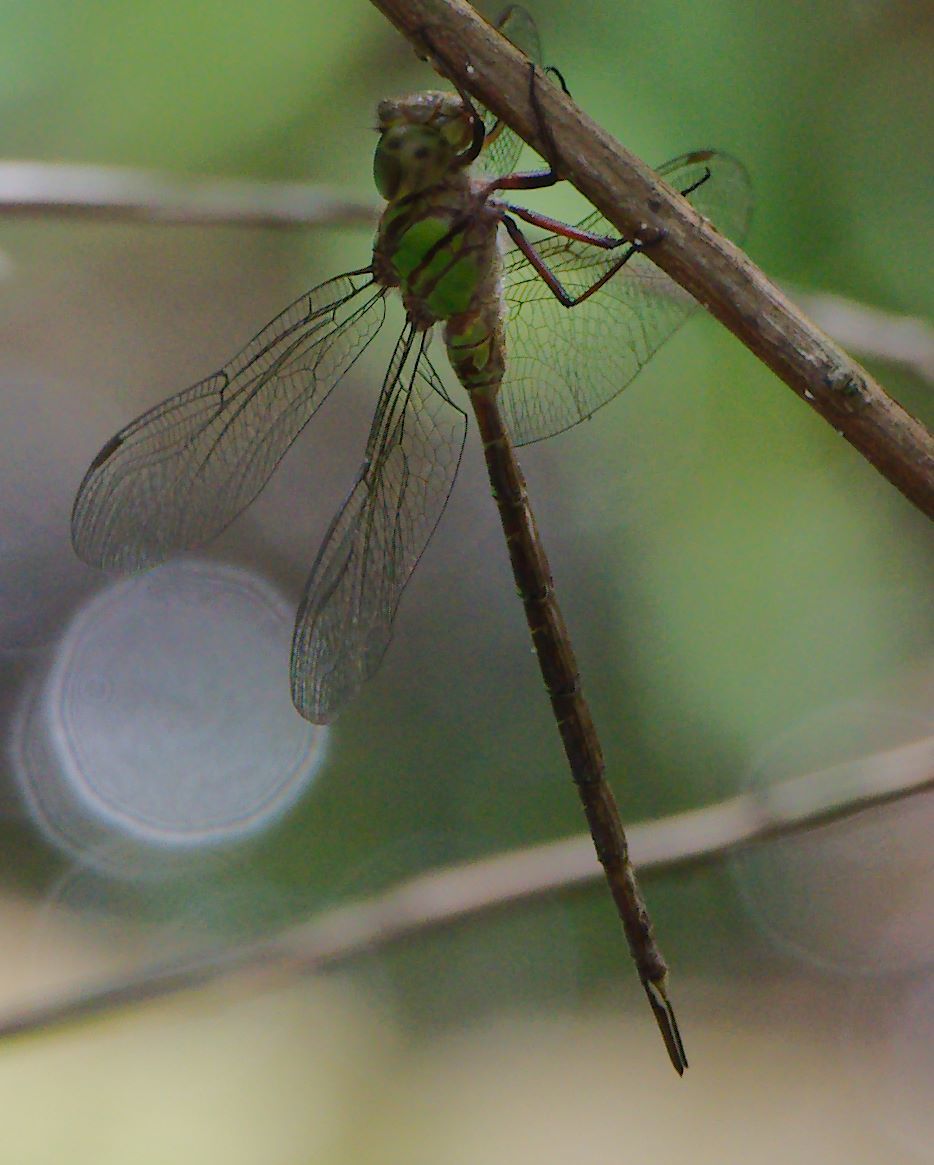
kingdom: Animalia
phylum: Arthropoda
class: Insecta
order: Odonata
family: Aeshnidae
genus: Triacanthagyna
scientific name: Triacanthagyna trifida
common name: Phantom darner
